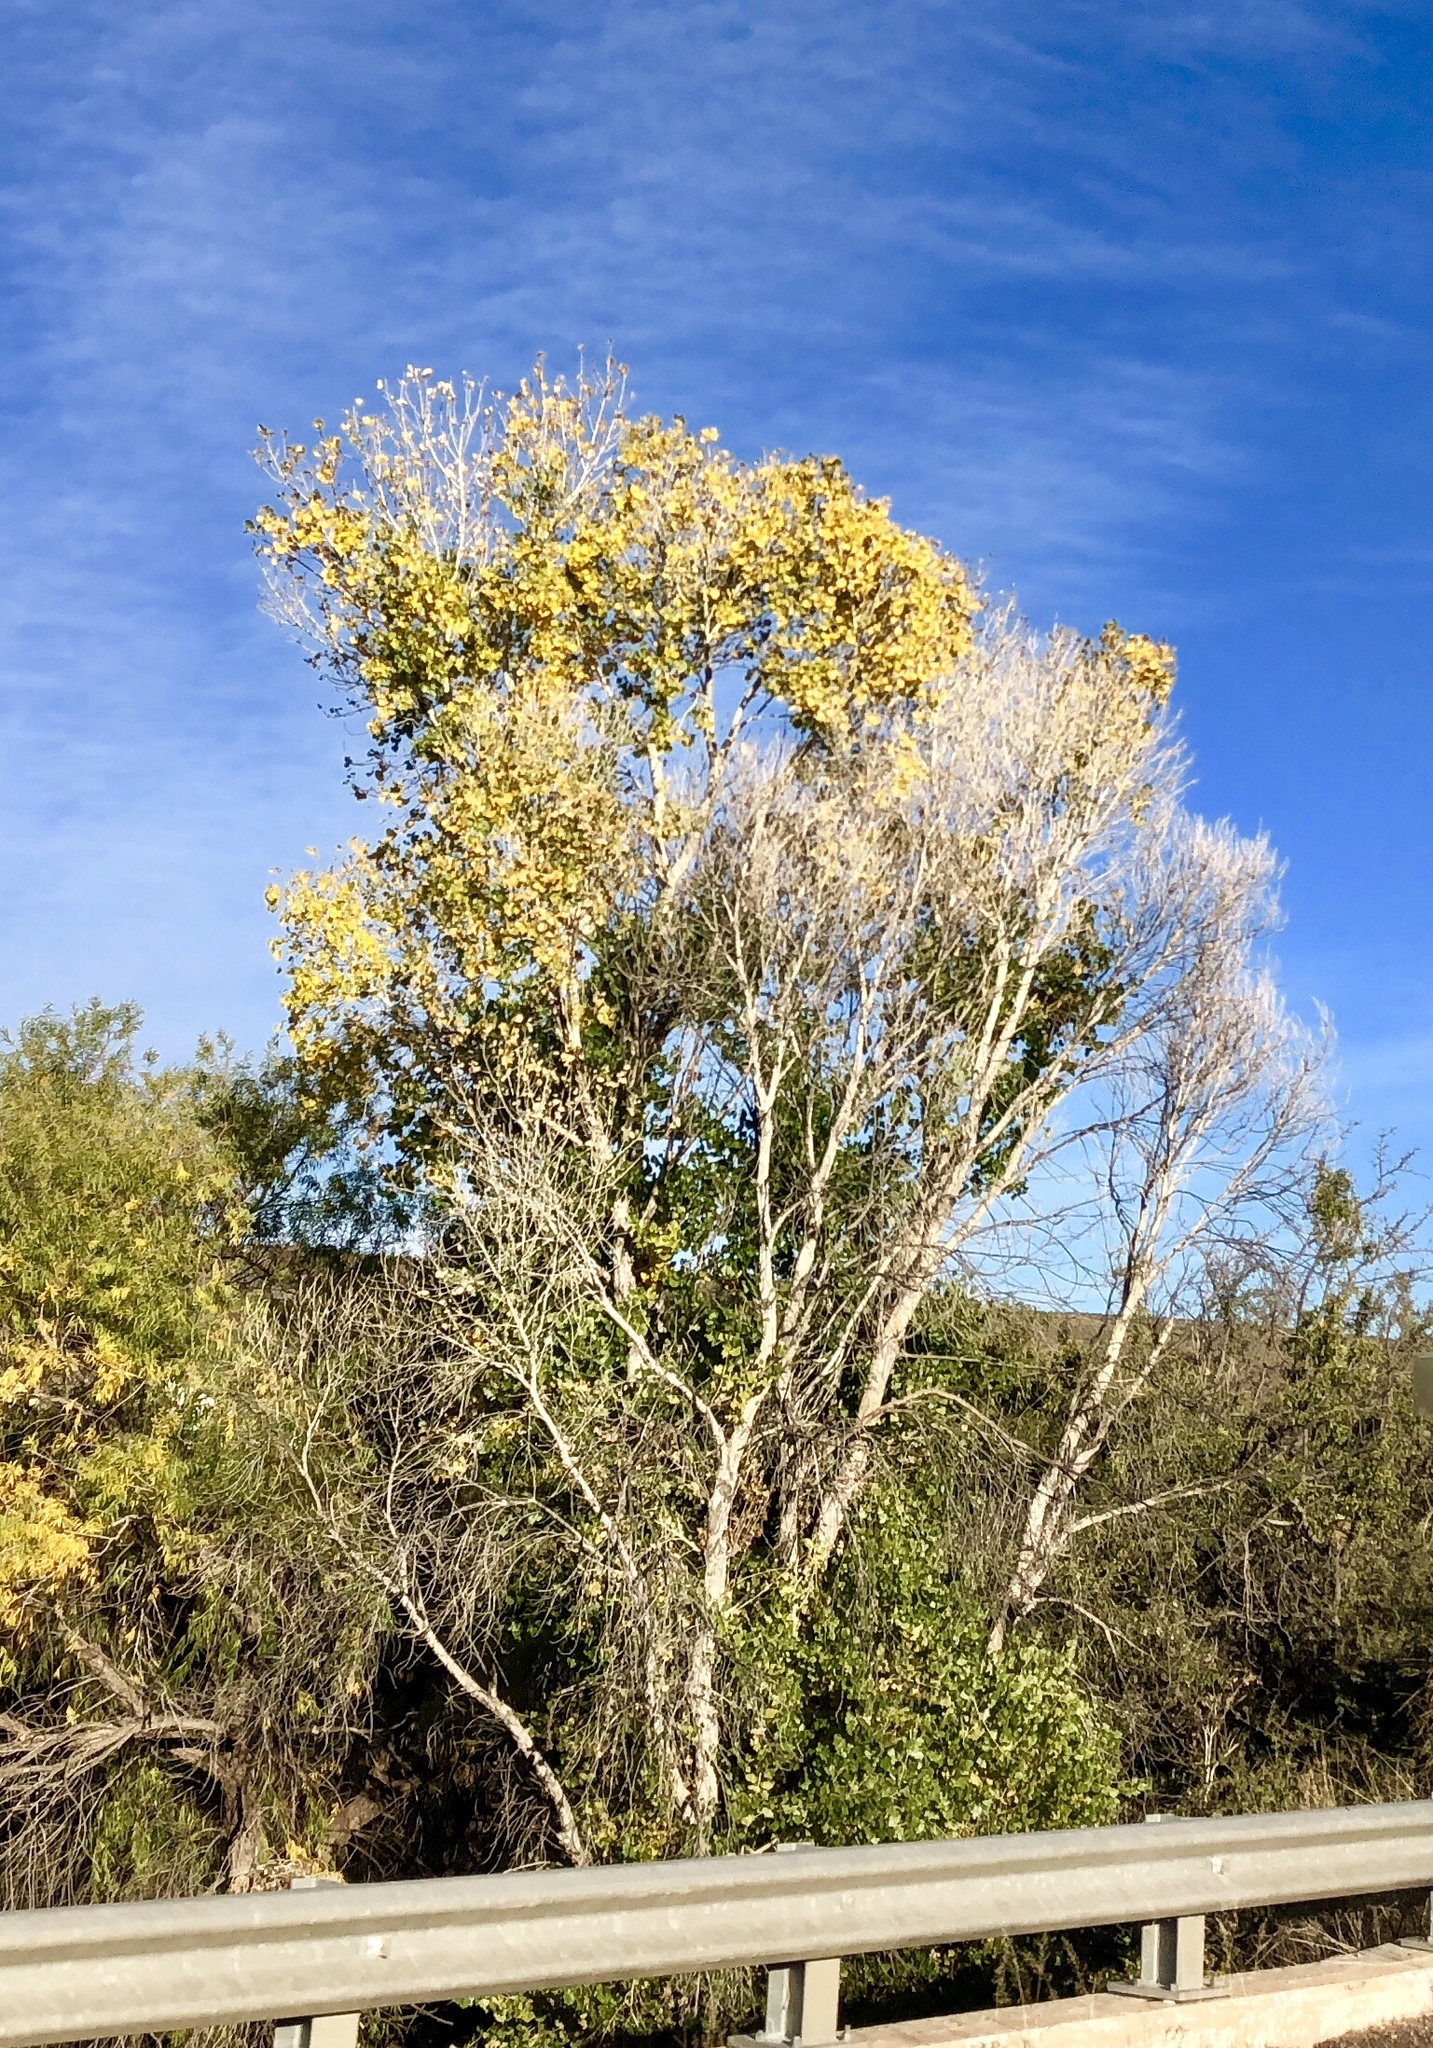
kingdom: Plantae
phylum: Tracheophyta
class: Magnoliopsida
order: Malpighiales
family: Salicaceae
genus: Populus
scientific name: Populus fremontii
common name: Fremont's cottonwood
